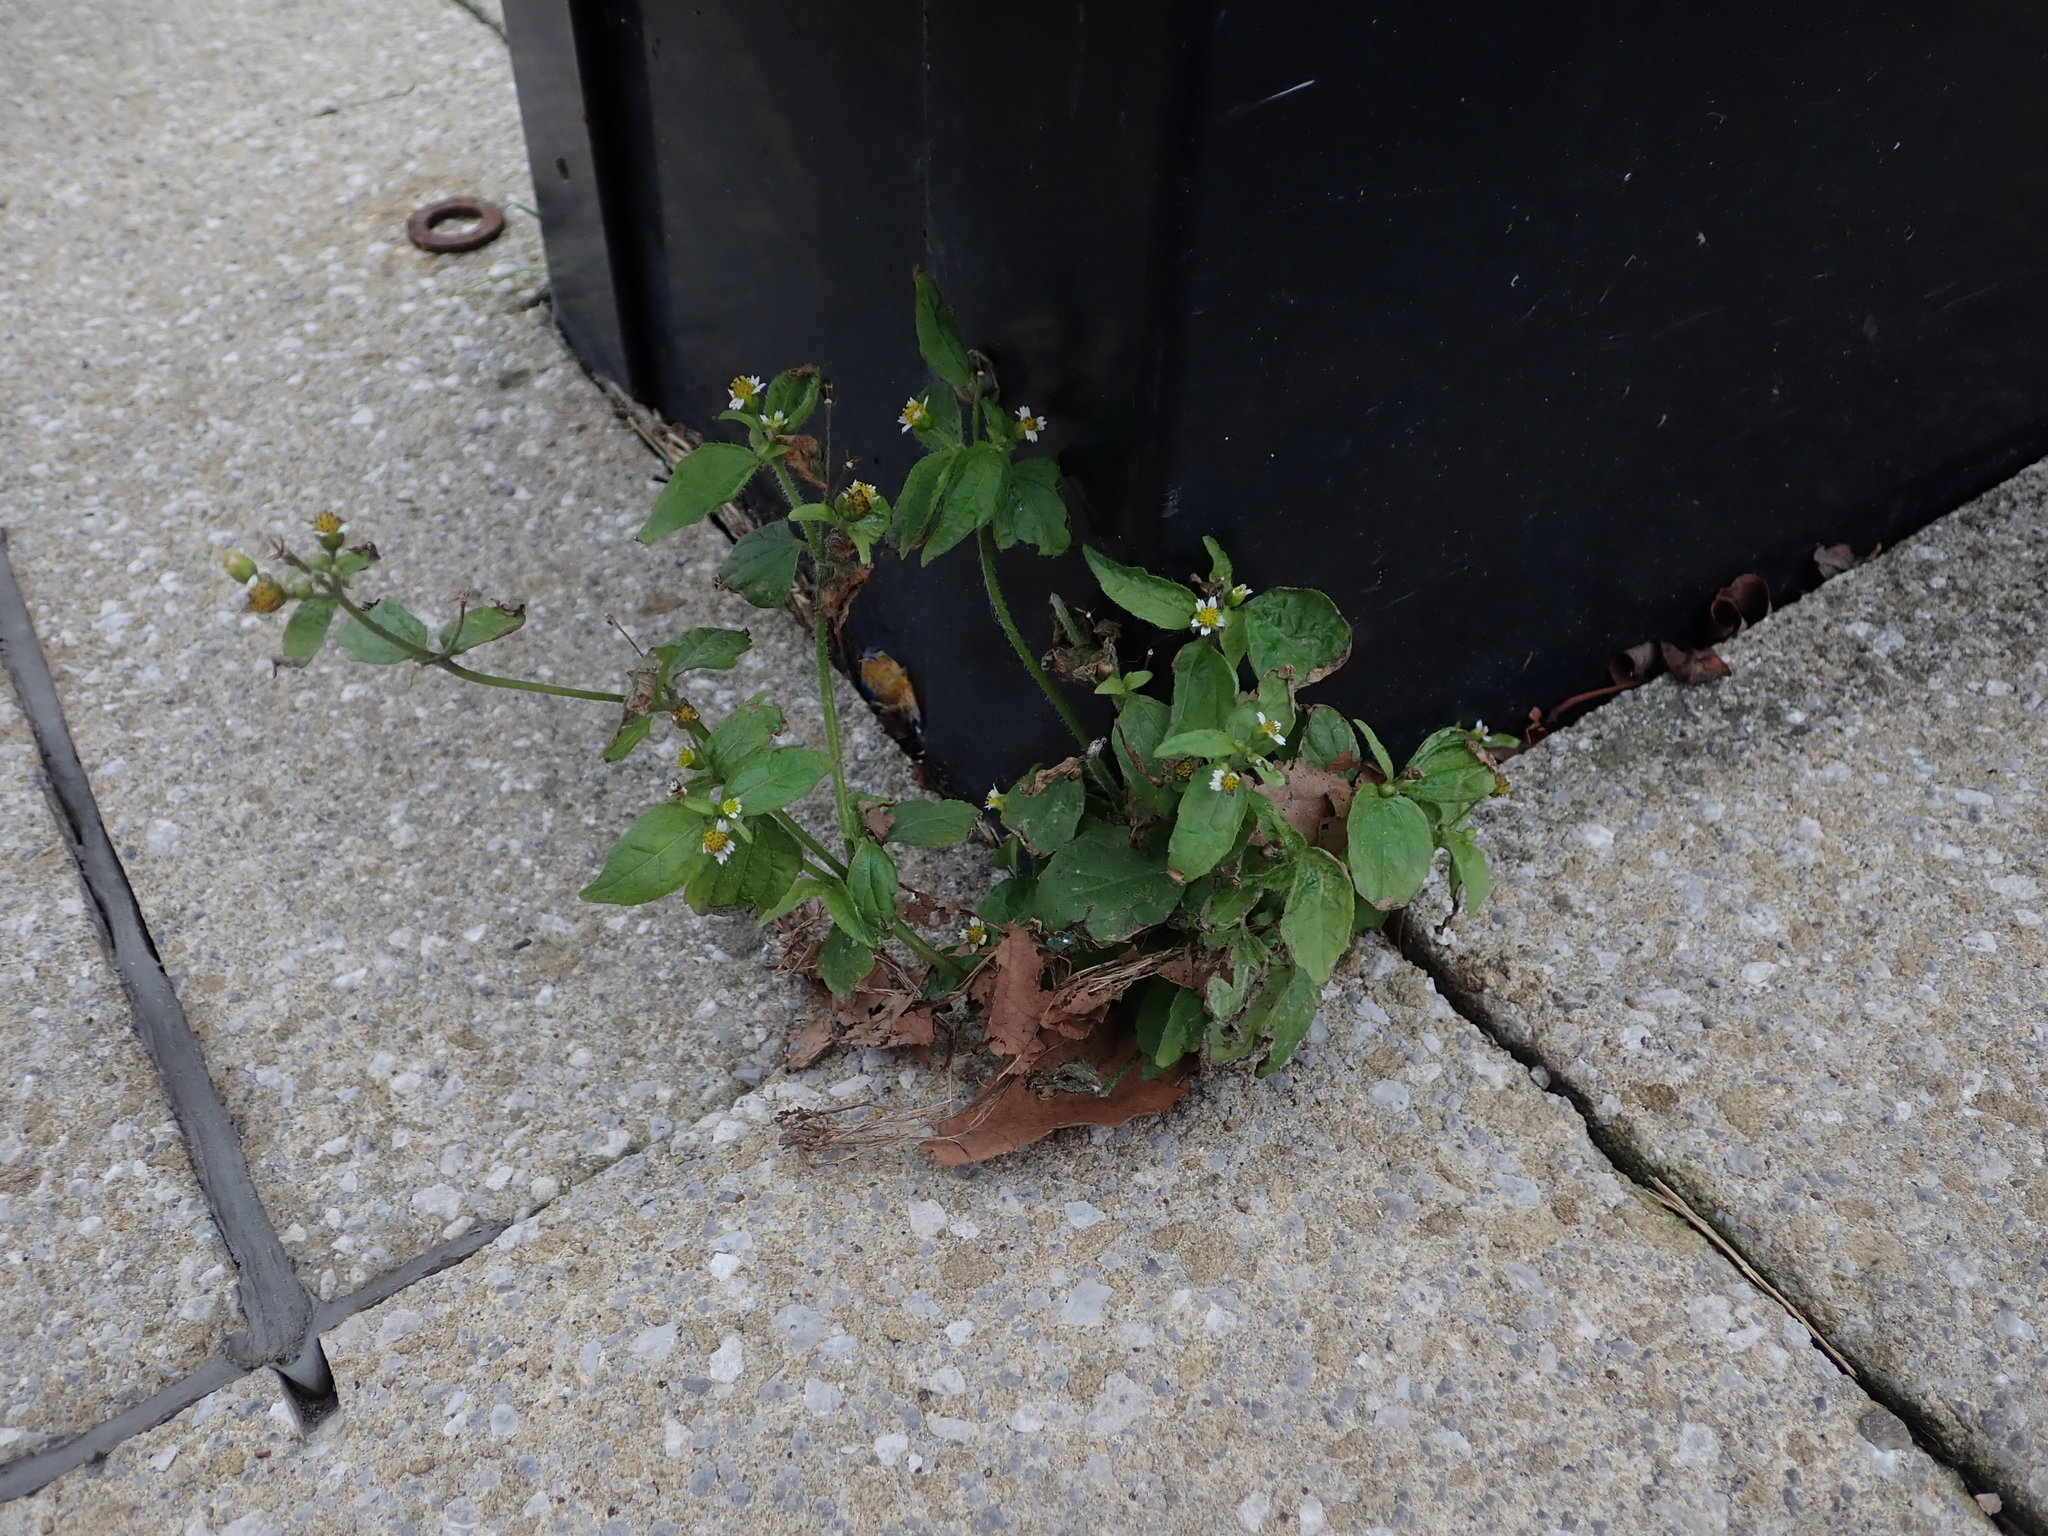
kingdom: Plantae
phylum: Tracheophyta
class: Magnoliopsida
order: Asterales
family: Asteraceae
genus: Galinsoga
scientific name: Galinsoga quadriradiata
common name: Shaggy soldier
